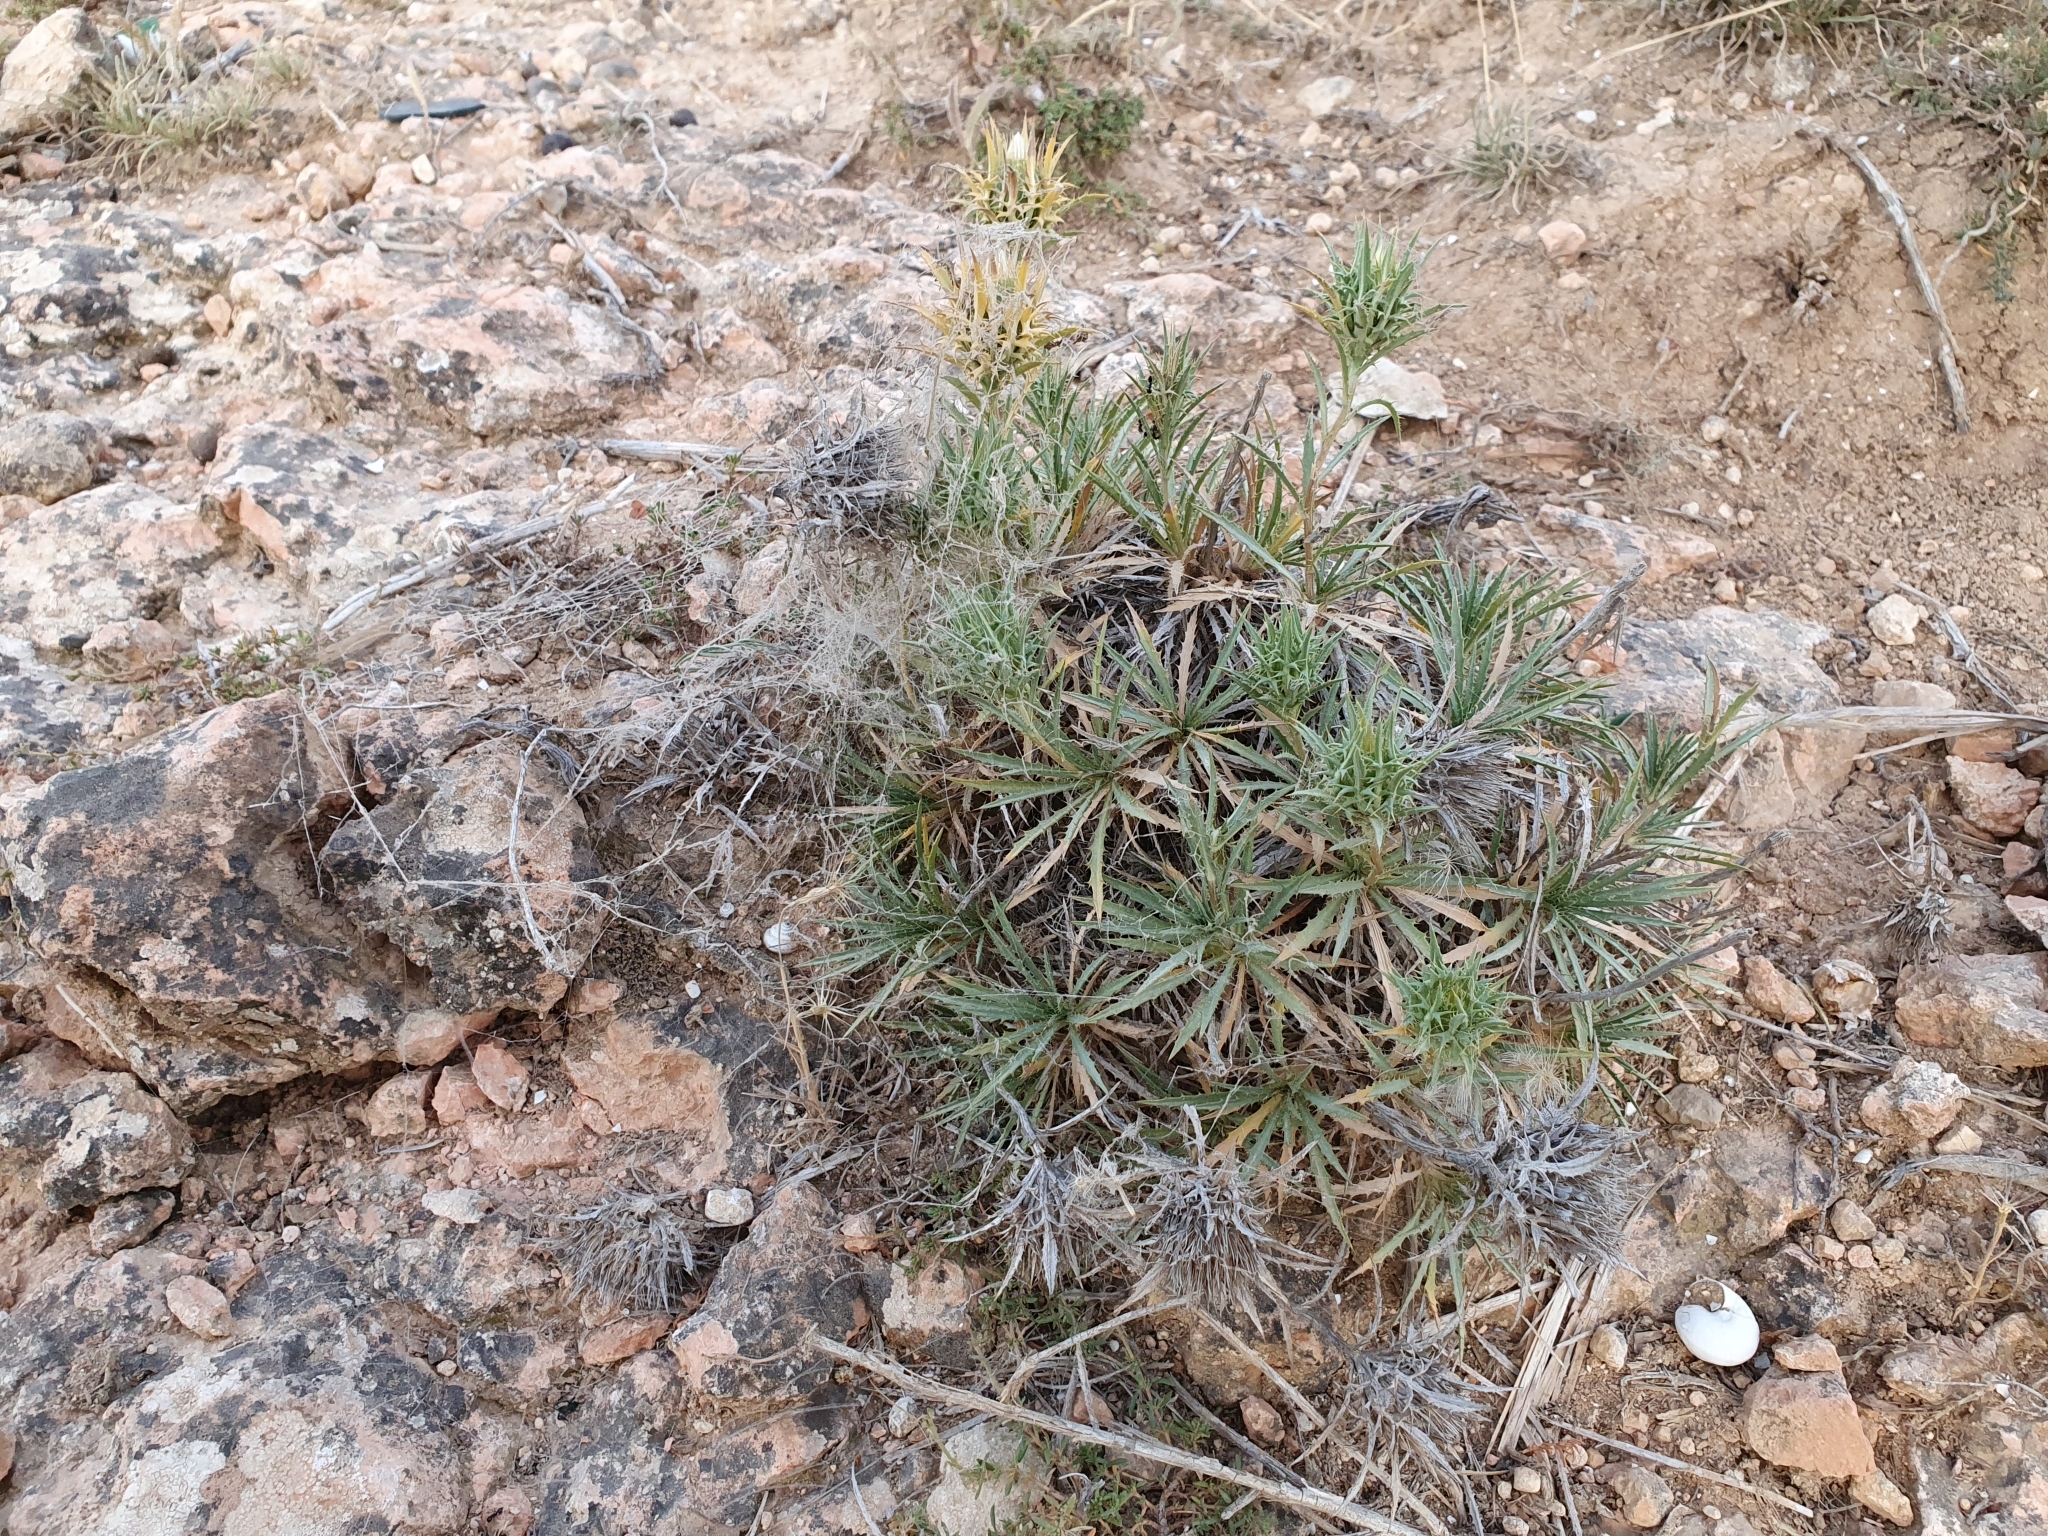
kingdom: Plantae
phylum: Tracheophyta
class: Magnoliopsida
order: Asterales
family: Asteraceae
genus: Atractylis
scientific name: Atractylis caespitosa
